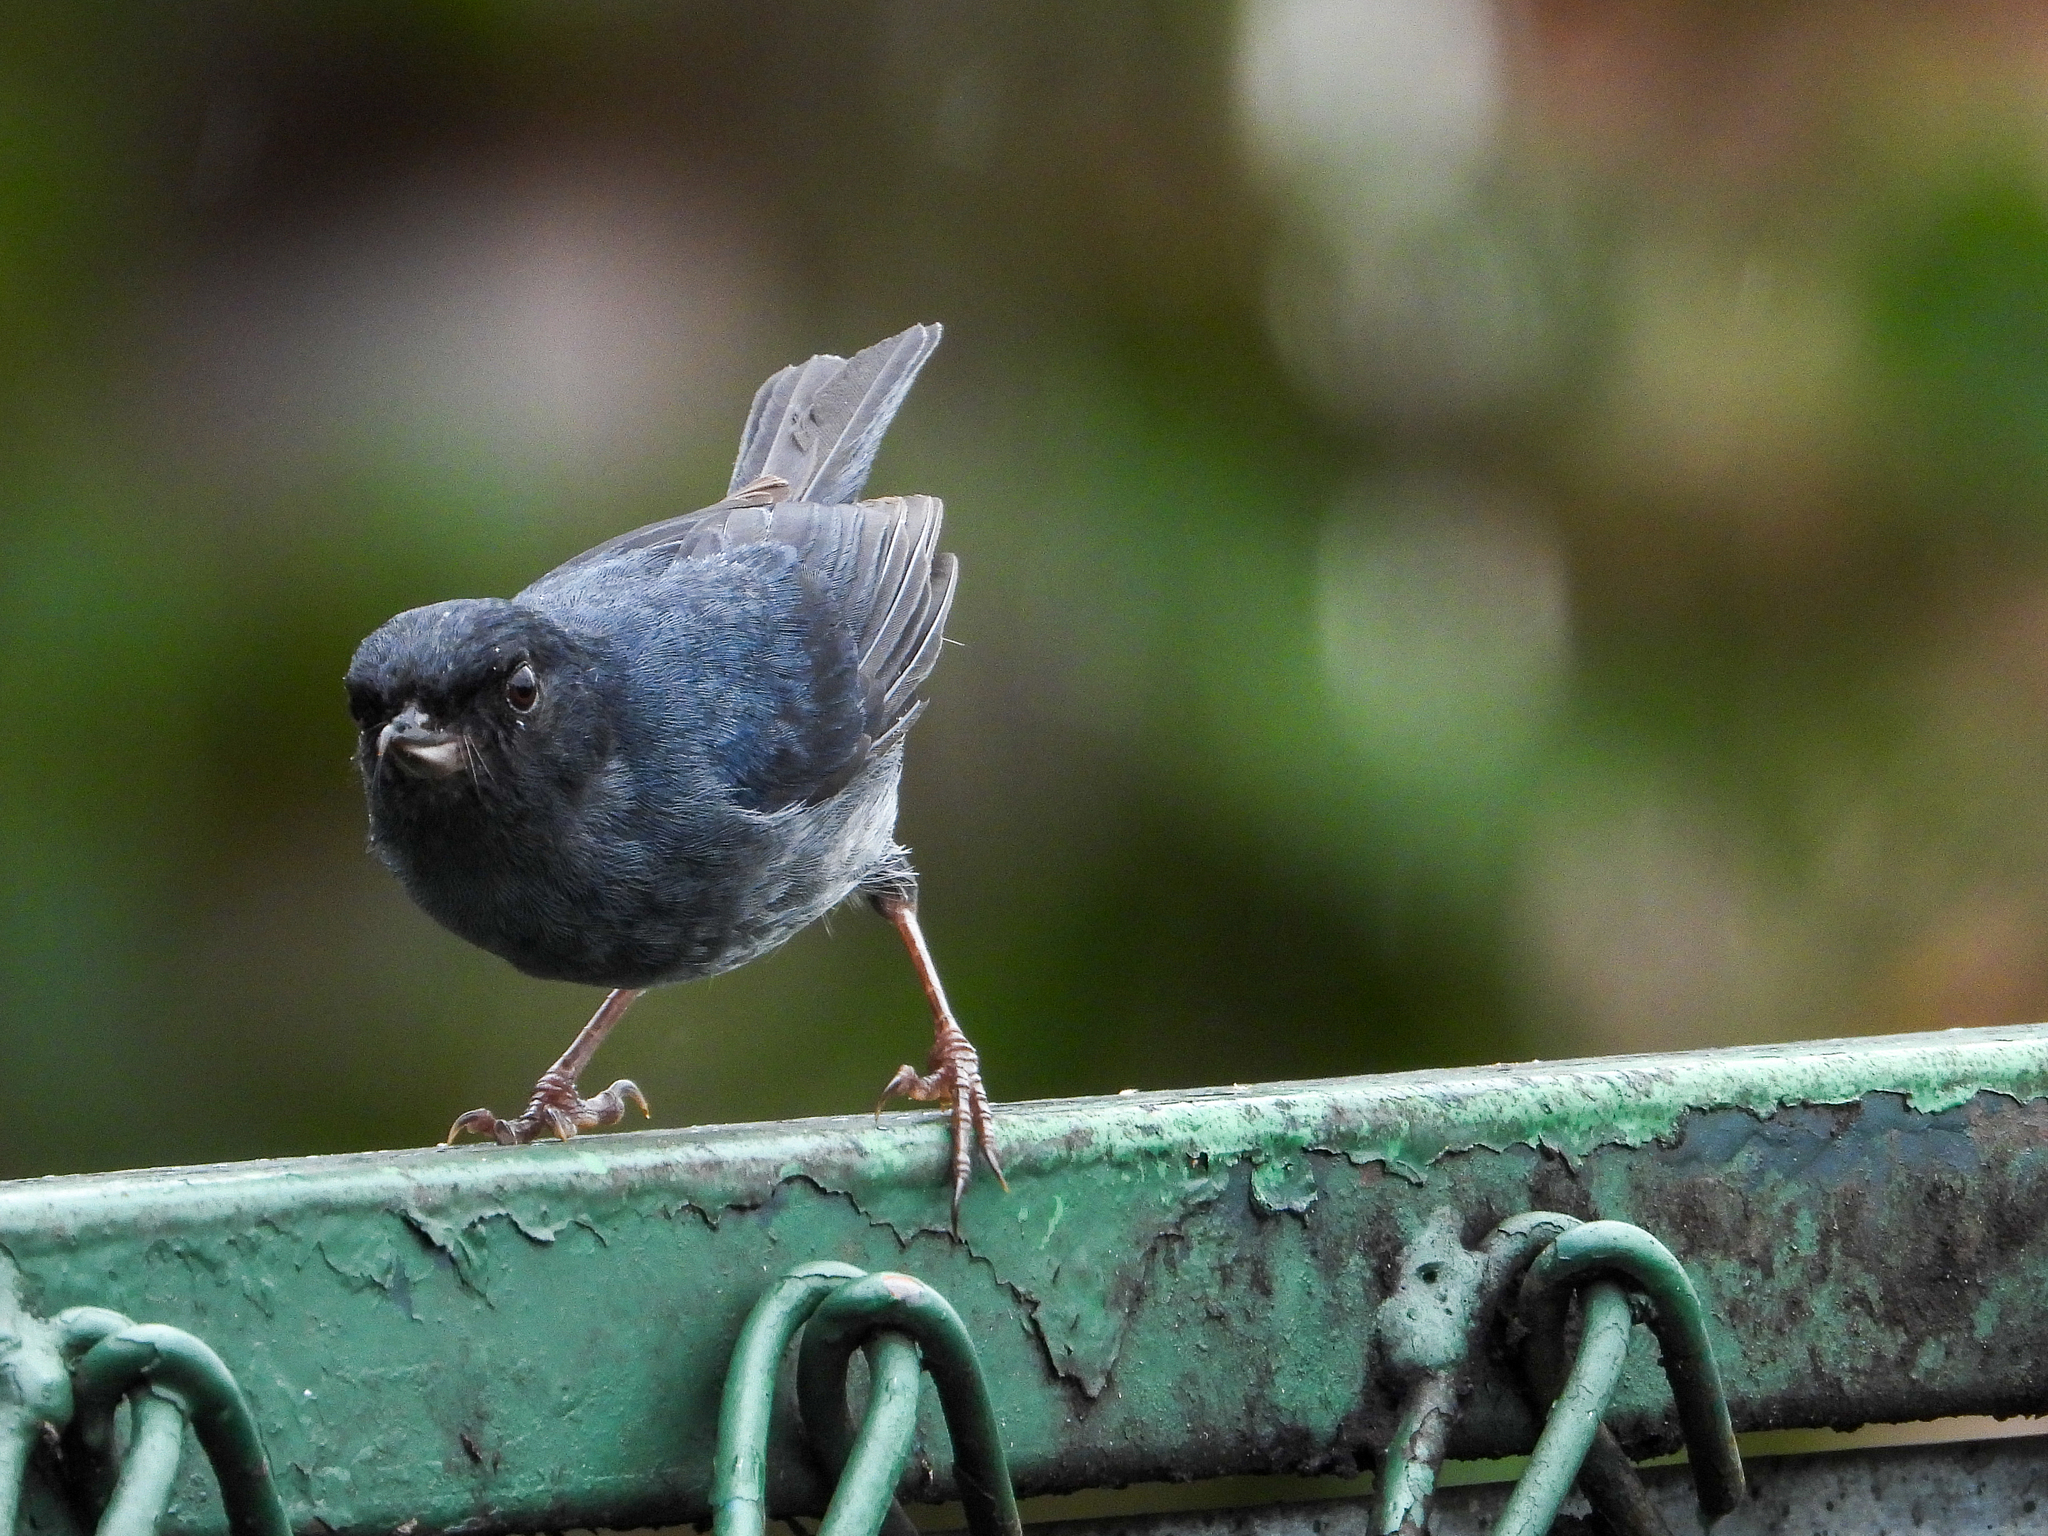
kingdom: Animalia
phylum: Chordata
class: Aves
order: Passeriformes
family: Thraupidae
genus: Diglossa
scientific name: Diglossa plumbea
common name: Slaty flowerpiercer
